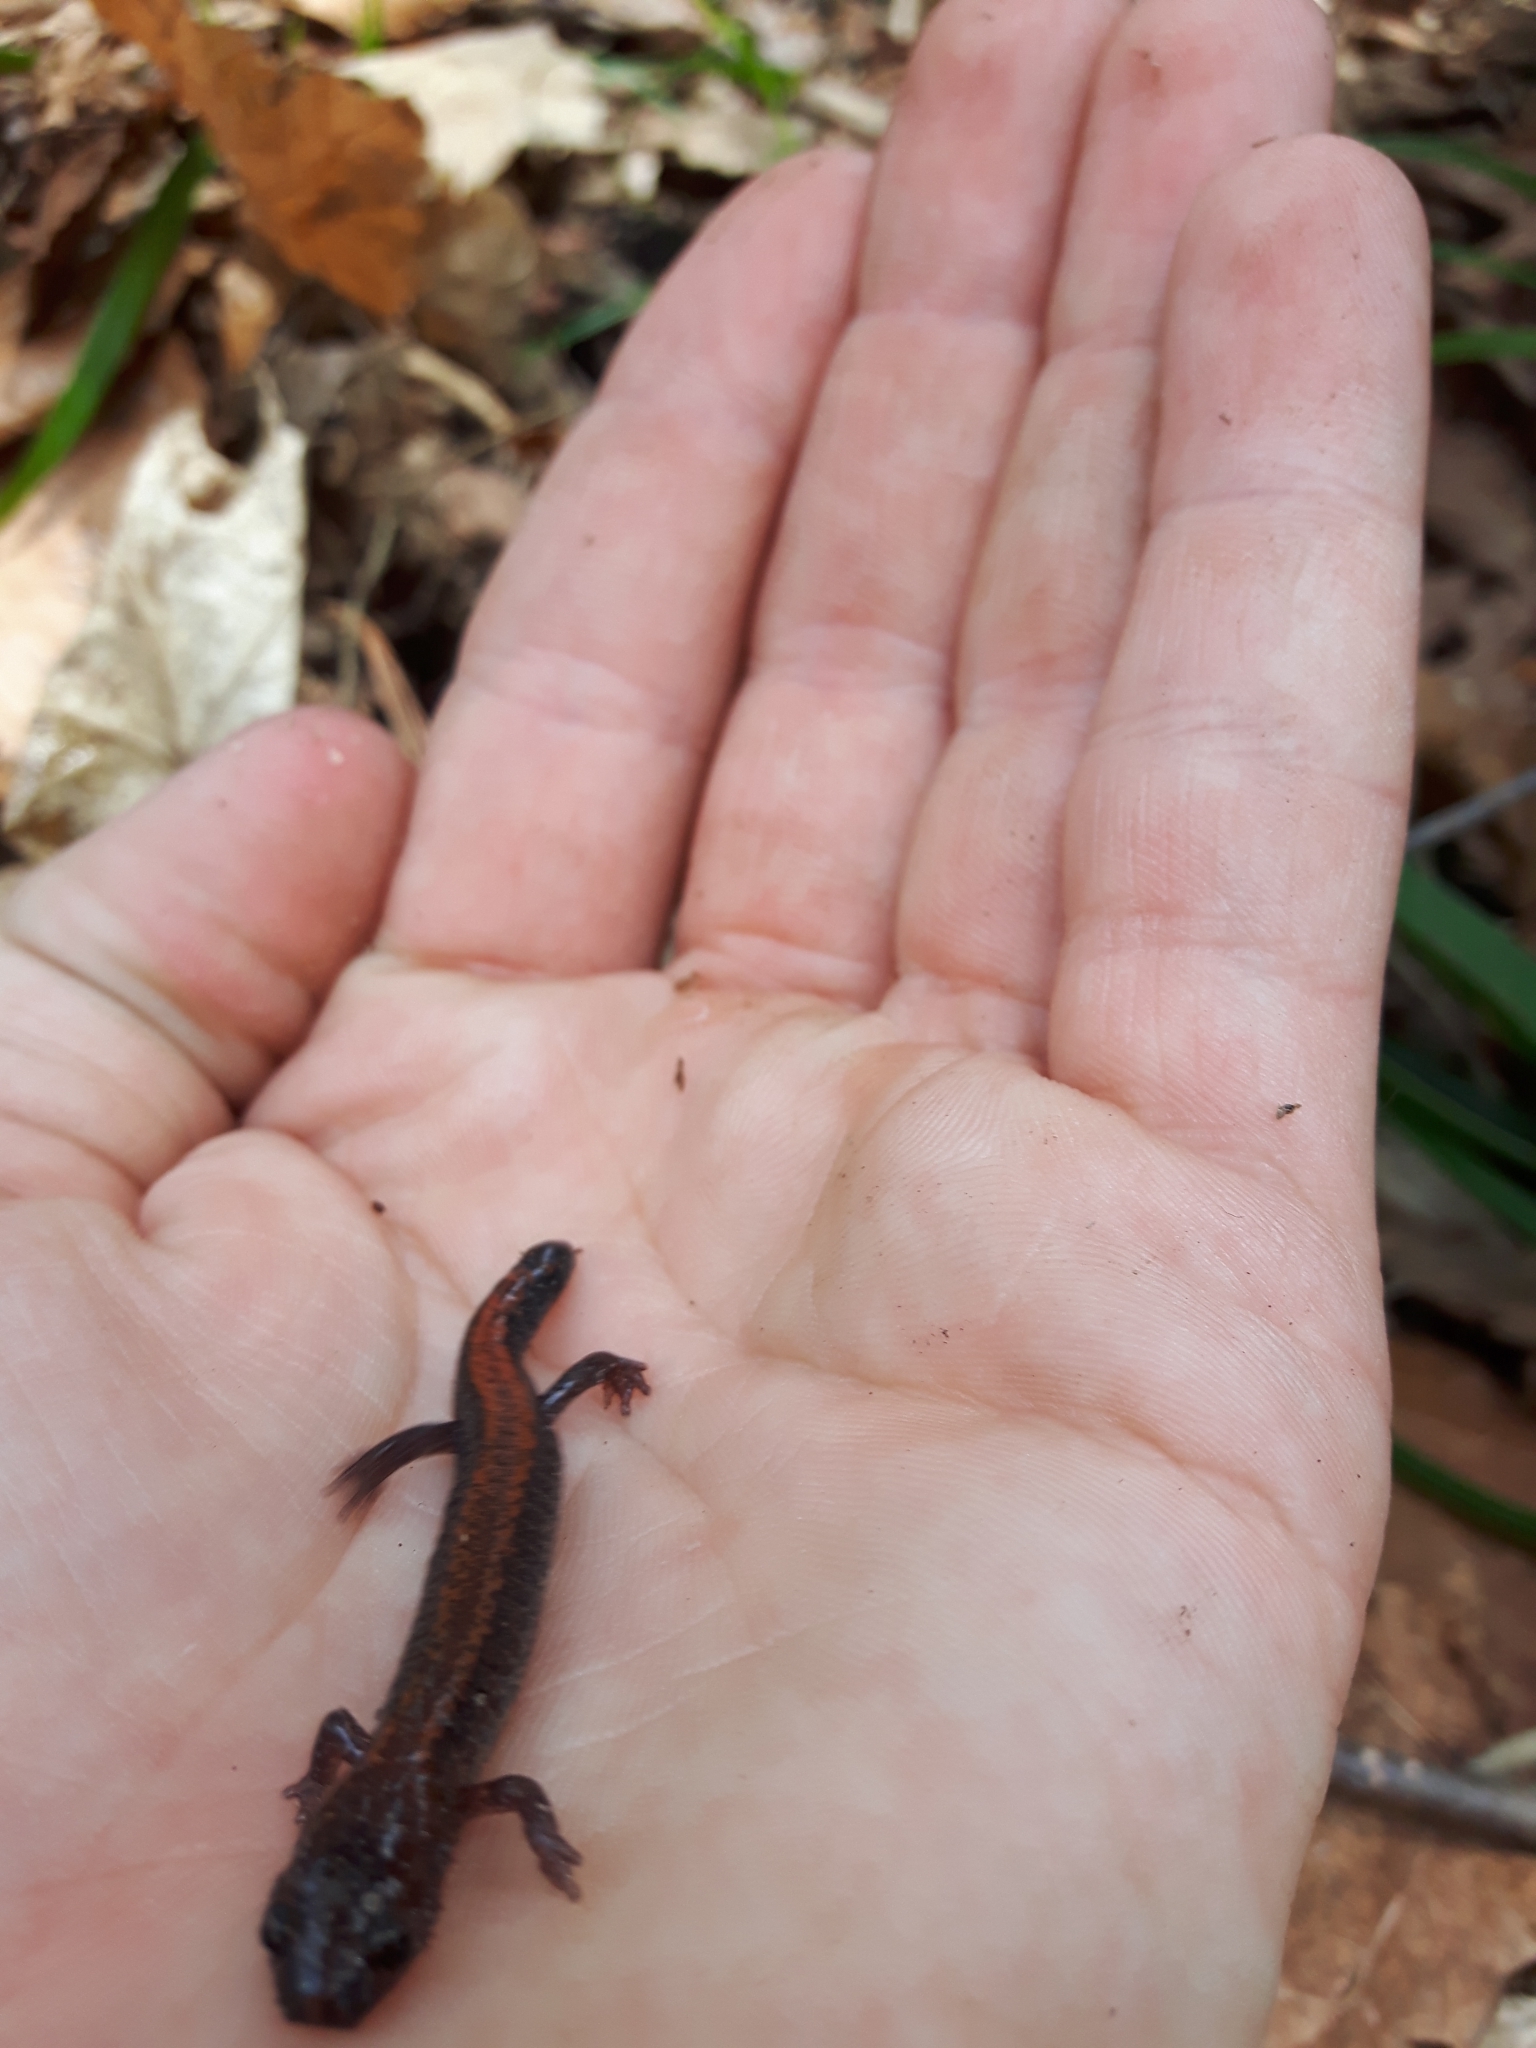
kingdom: Animalia
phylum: Chordata
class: Amphibia
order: Caudata
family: Plethodontidae
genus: Plethodon
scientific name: Plethodon cinereus
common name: Redback salamander
